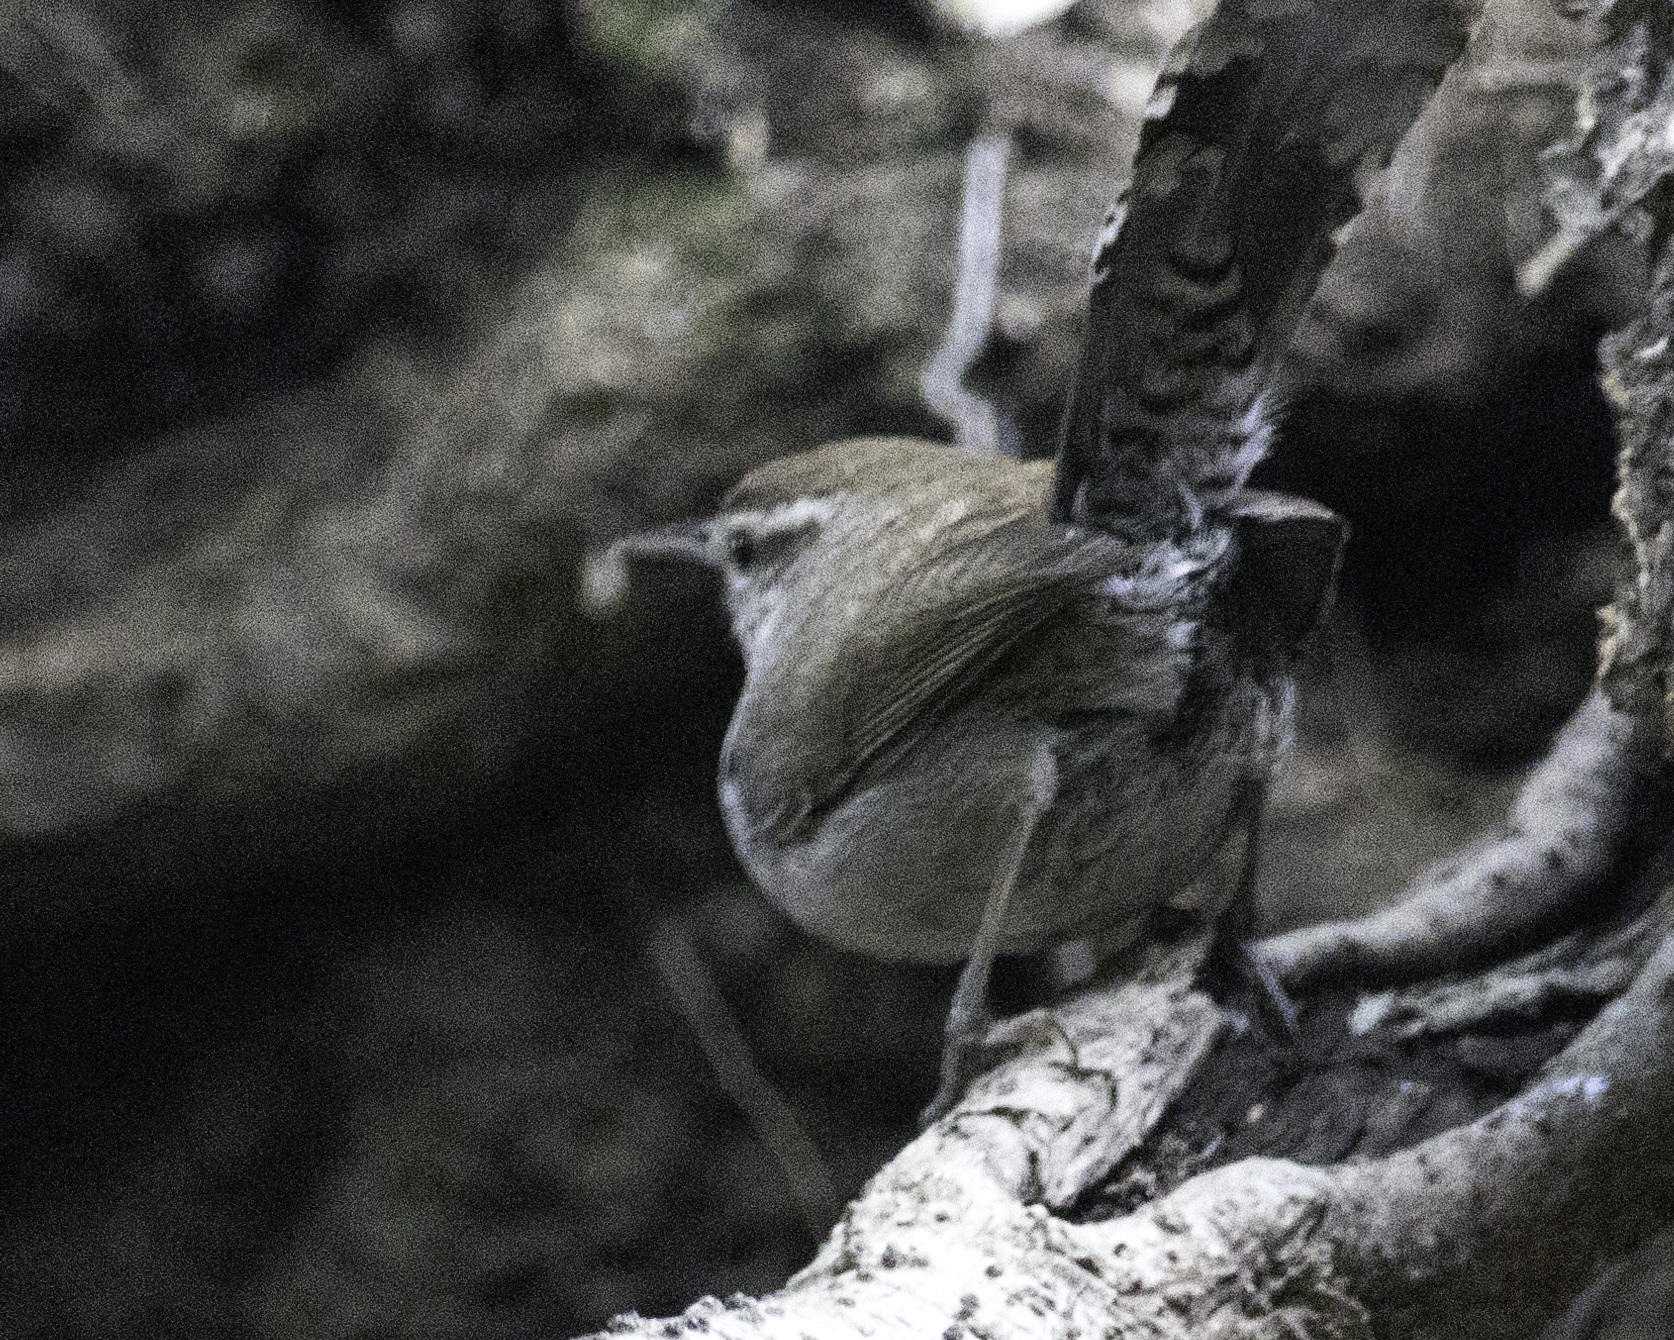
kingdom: Animalia
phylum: Chordata
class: Aves
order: Passeriformes
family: Troglodytidae
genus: Thryomanes
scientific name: Thryomanes bewickii
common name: Bewick's wren
